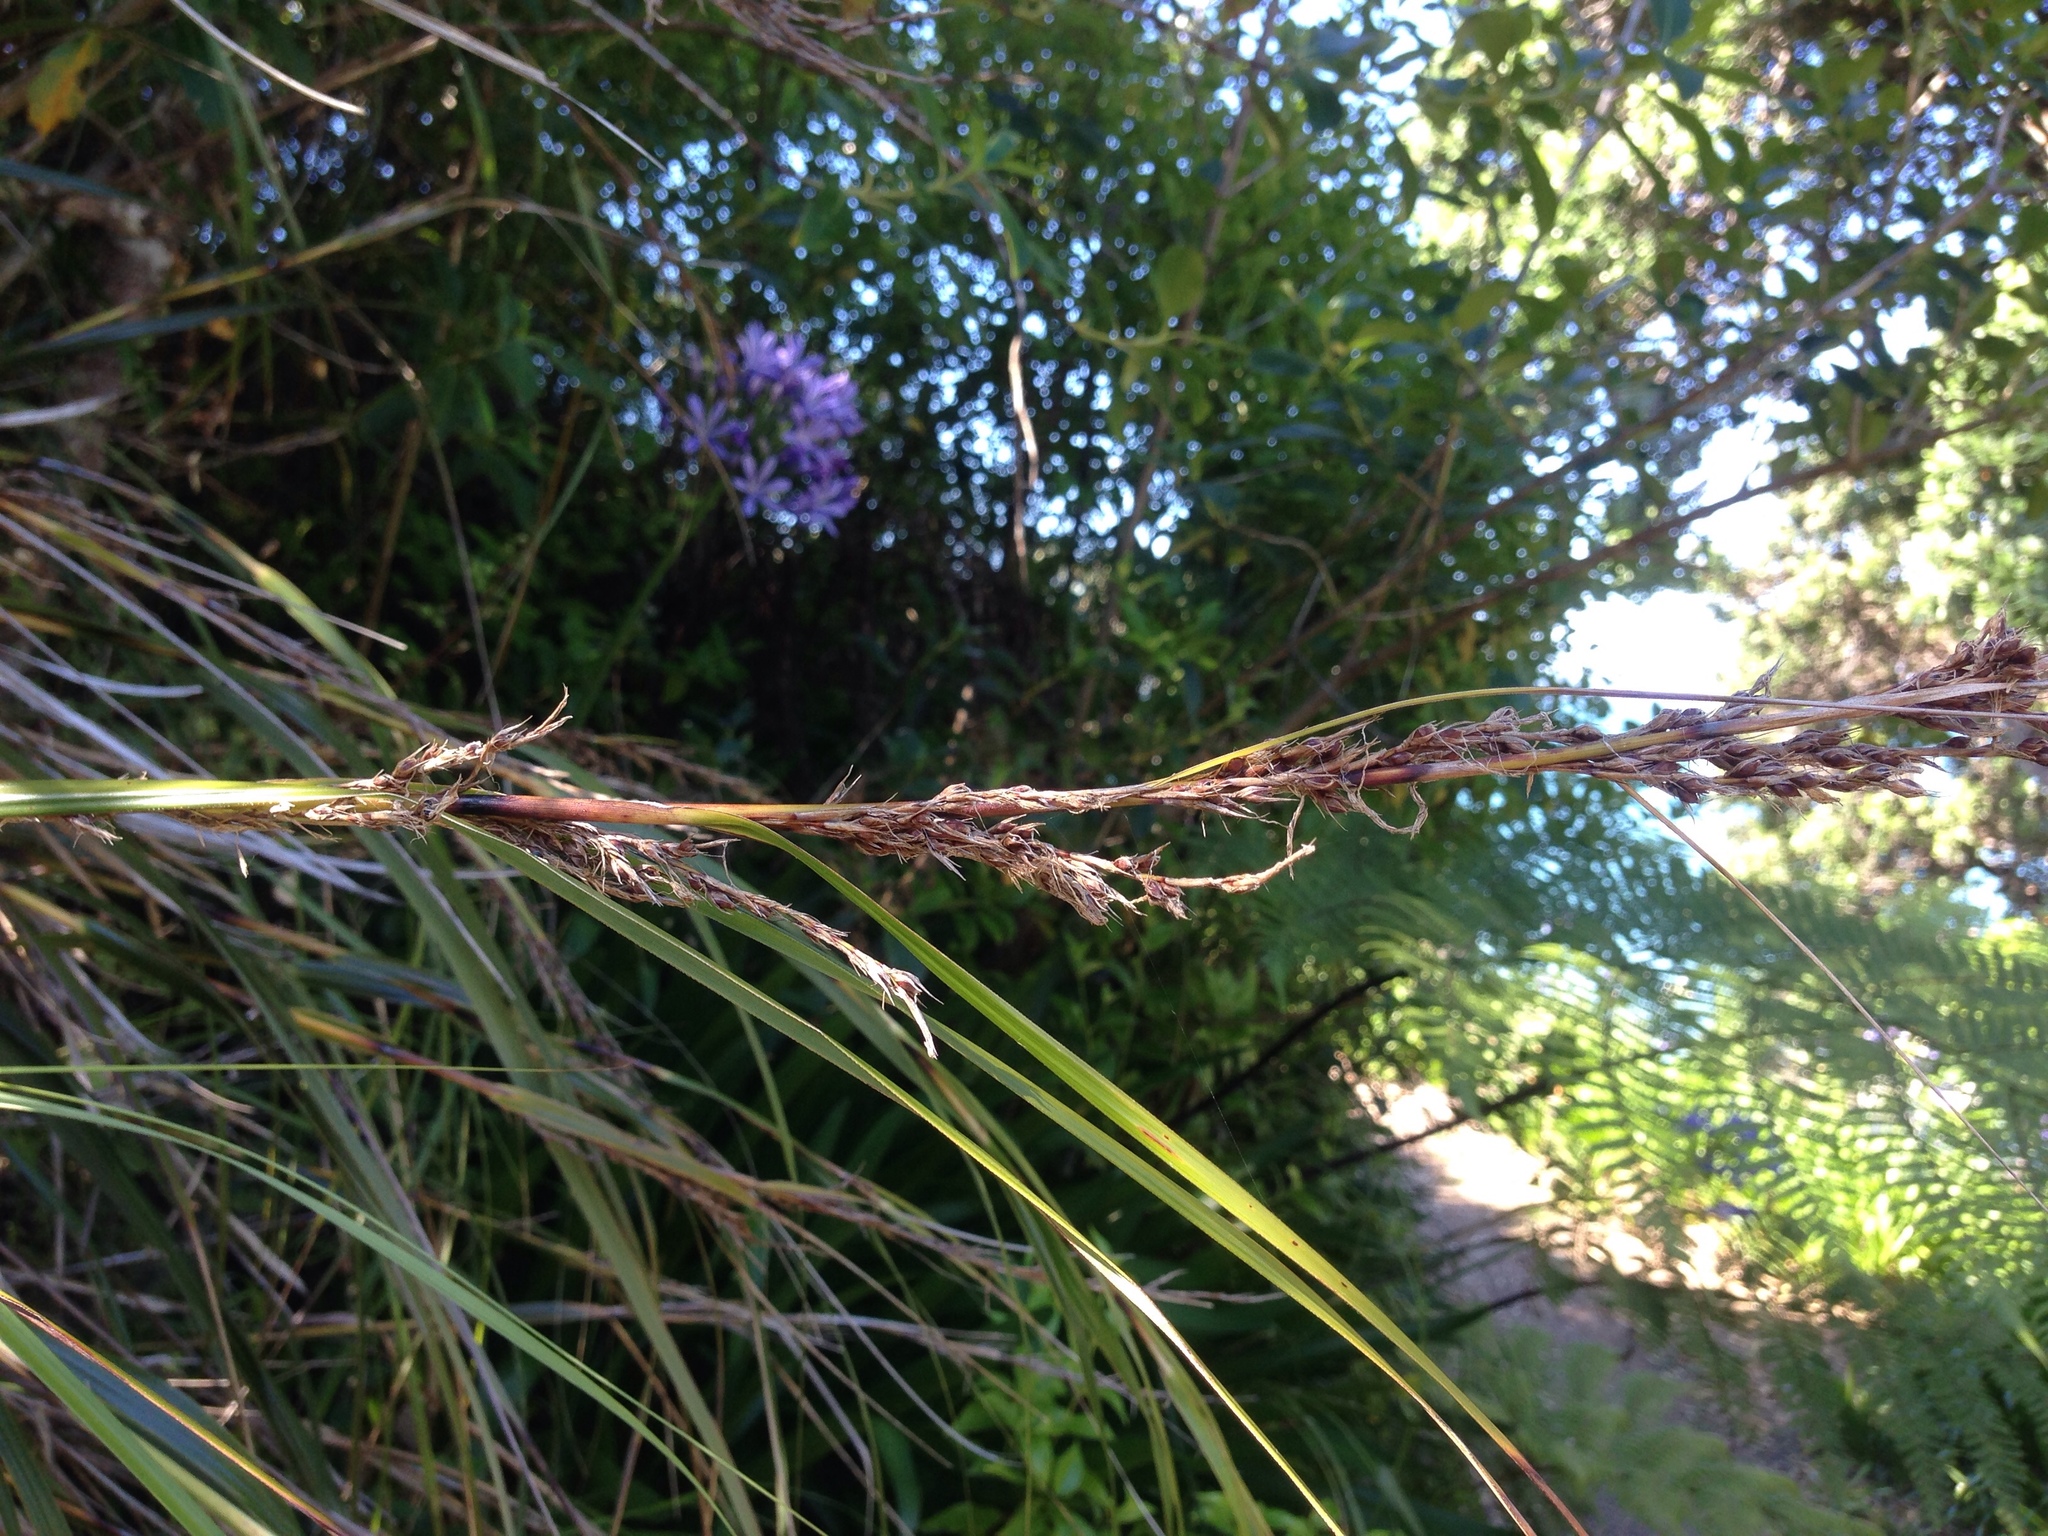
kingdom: Plantae
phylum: Tracheophyta
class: Liliopsida
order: Poales
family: Cyperaceae
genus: Gahnia
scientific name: Gahnia lacera
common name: Sawsedge
